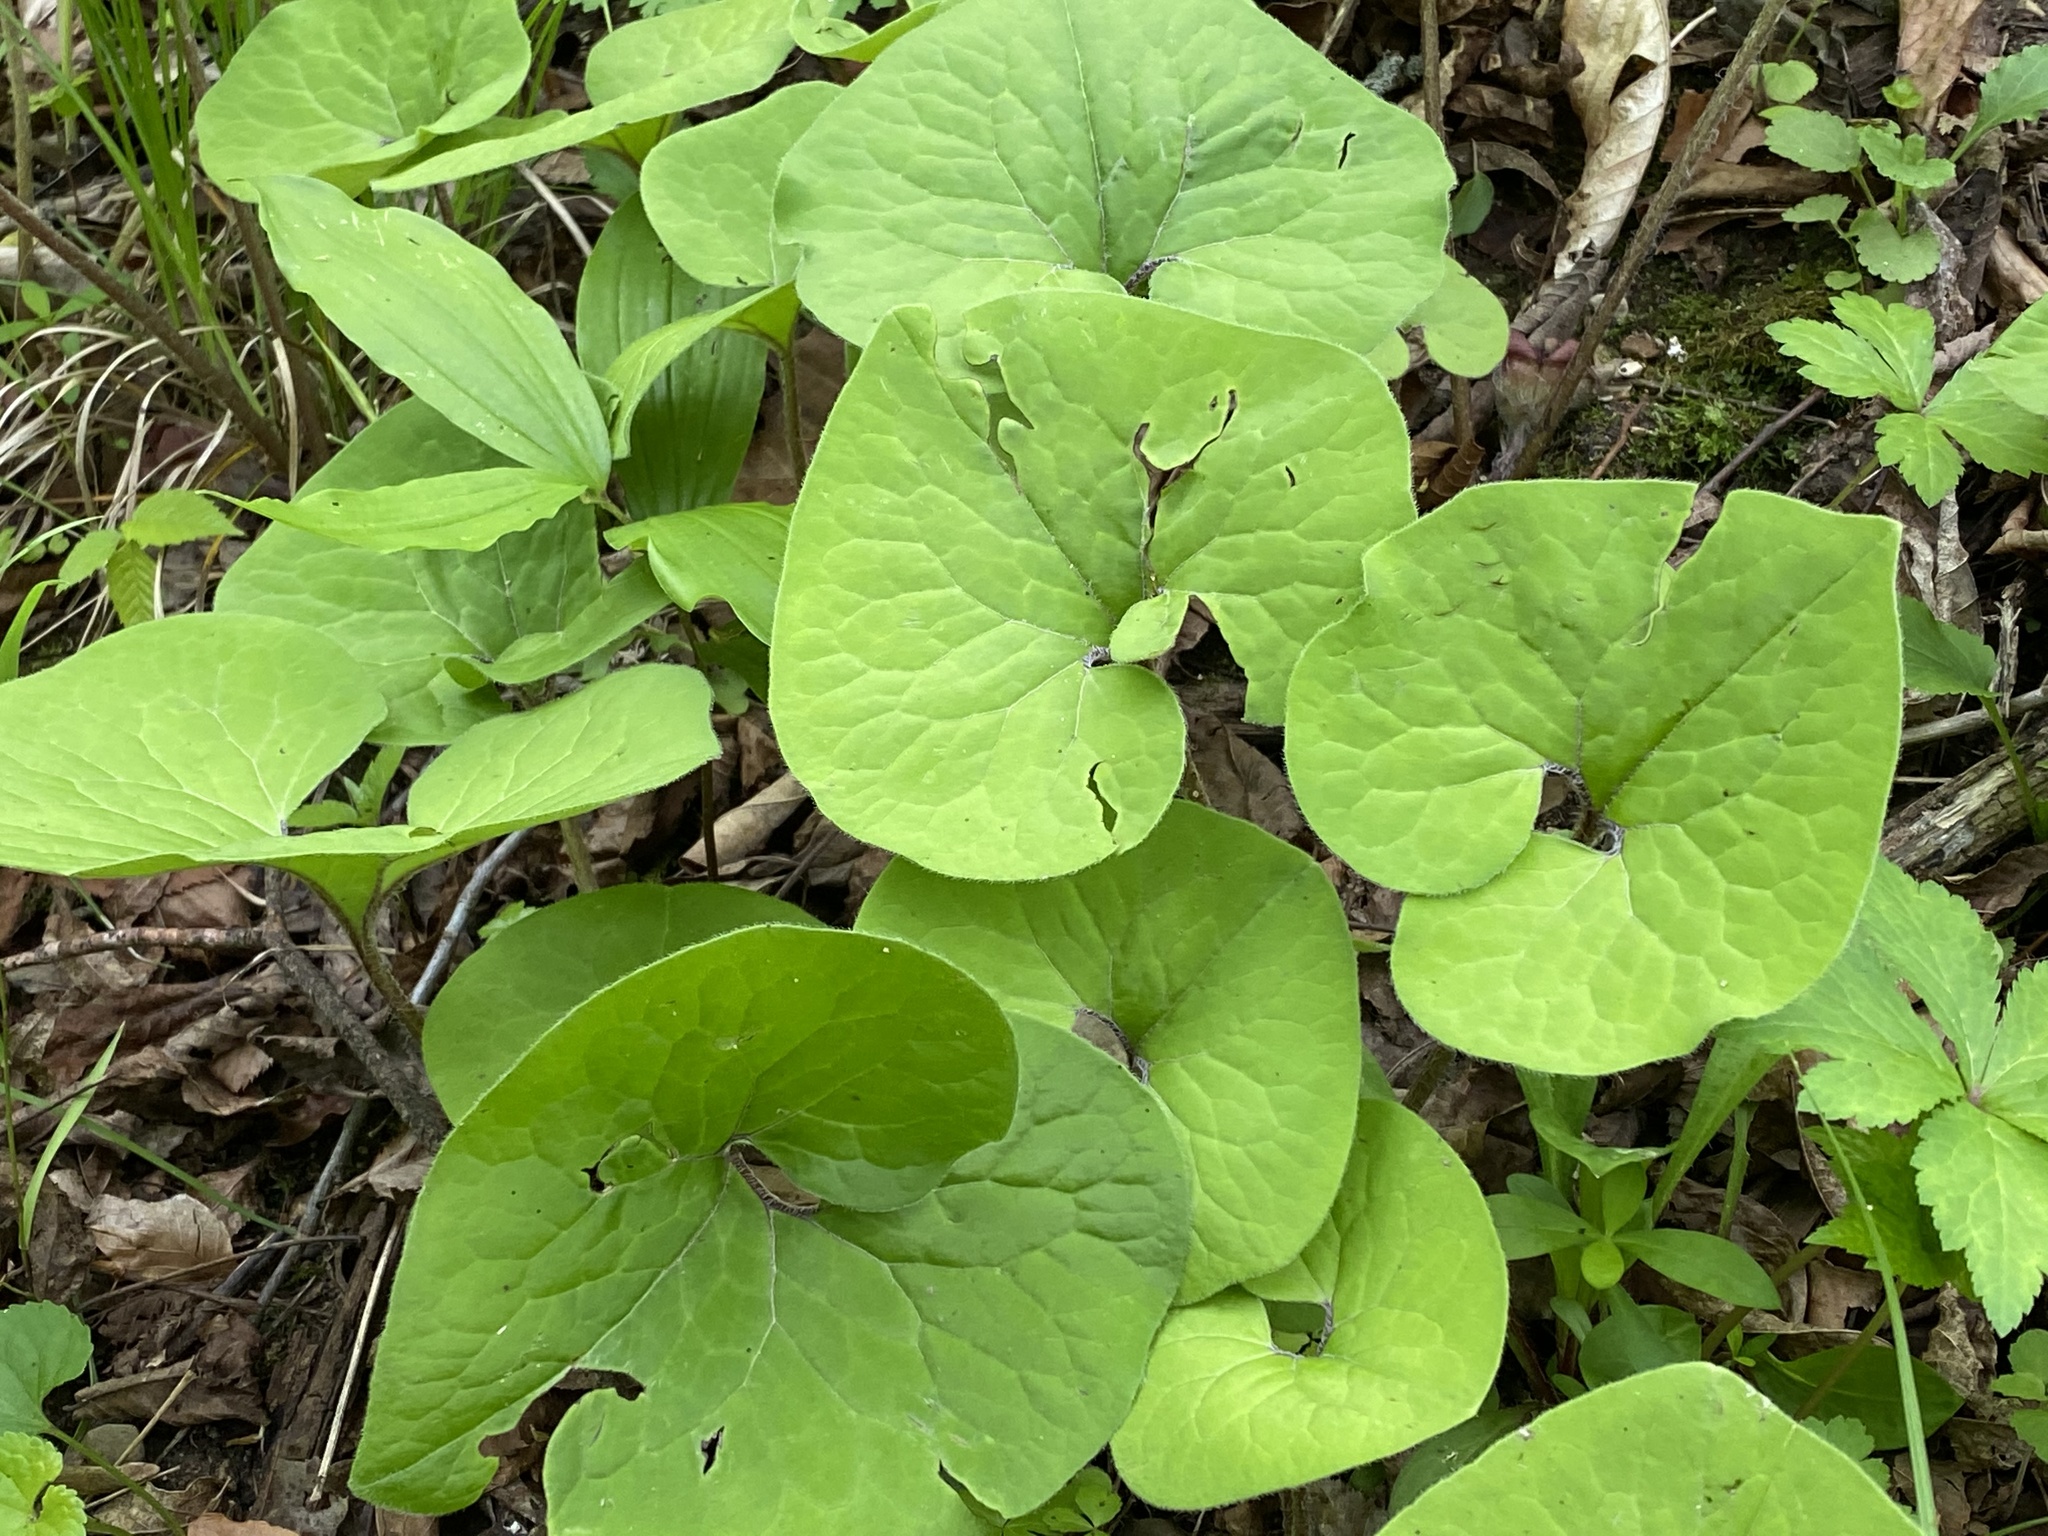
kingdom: Plantae
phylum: Tracheophyta
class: Magnoliopsida
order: Piperales
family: Aristolochiaceae
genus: Asarum
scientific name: Asarum canadense
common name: Wild ginger
